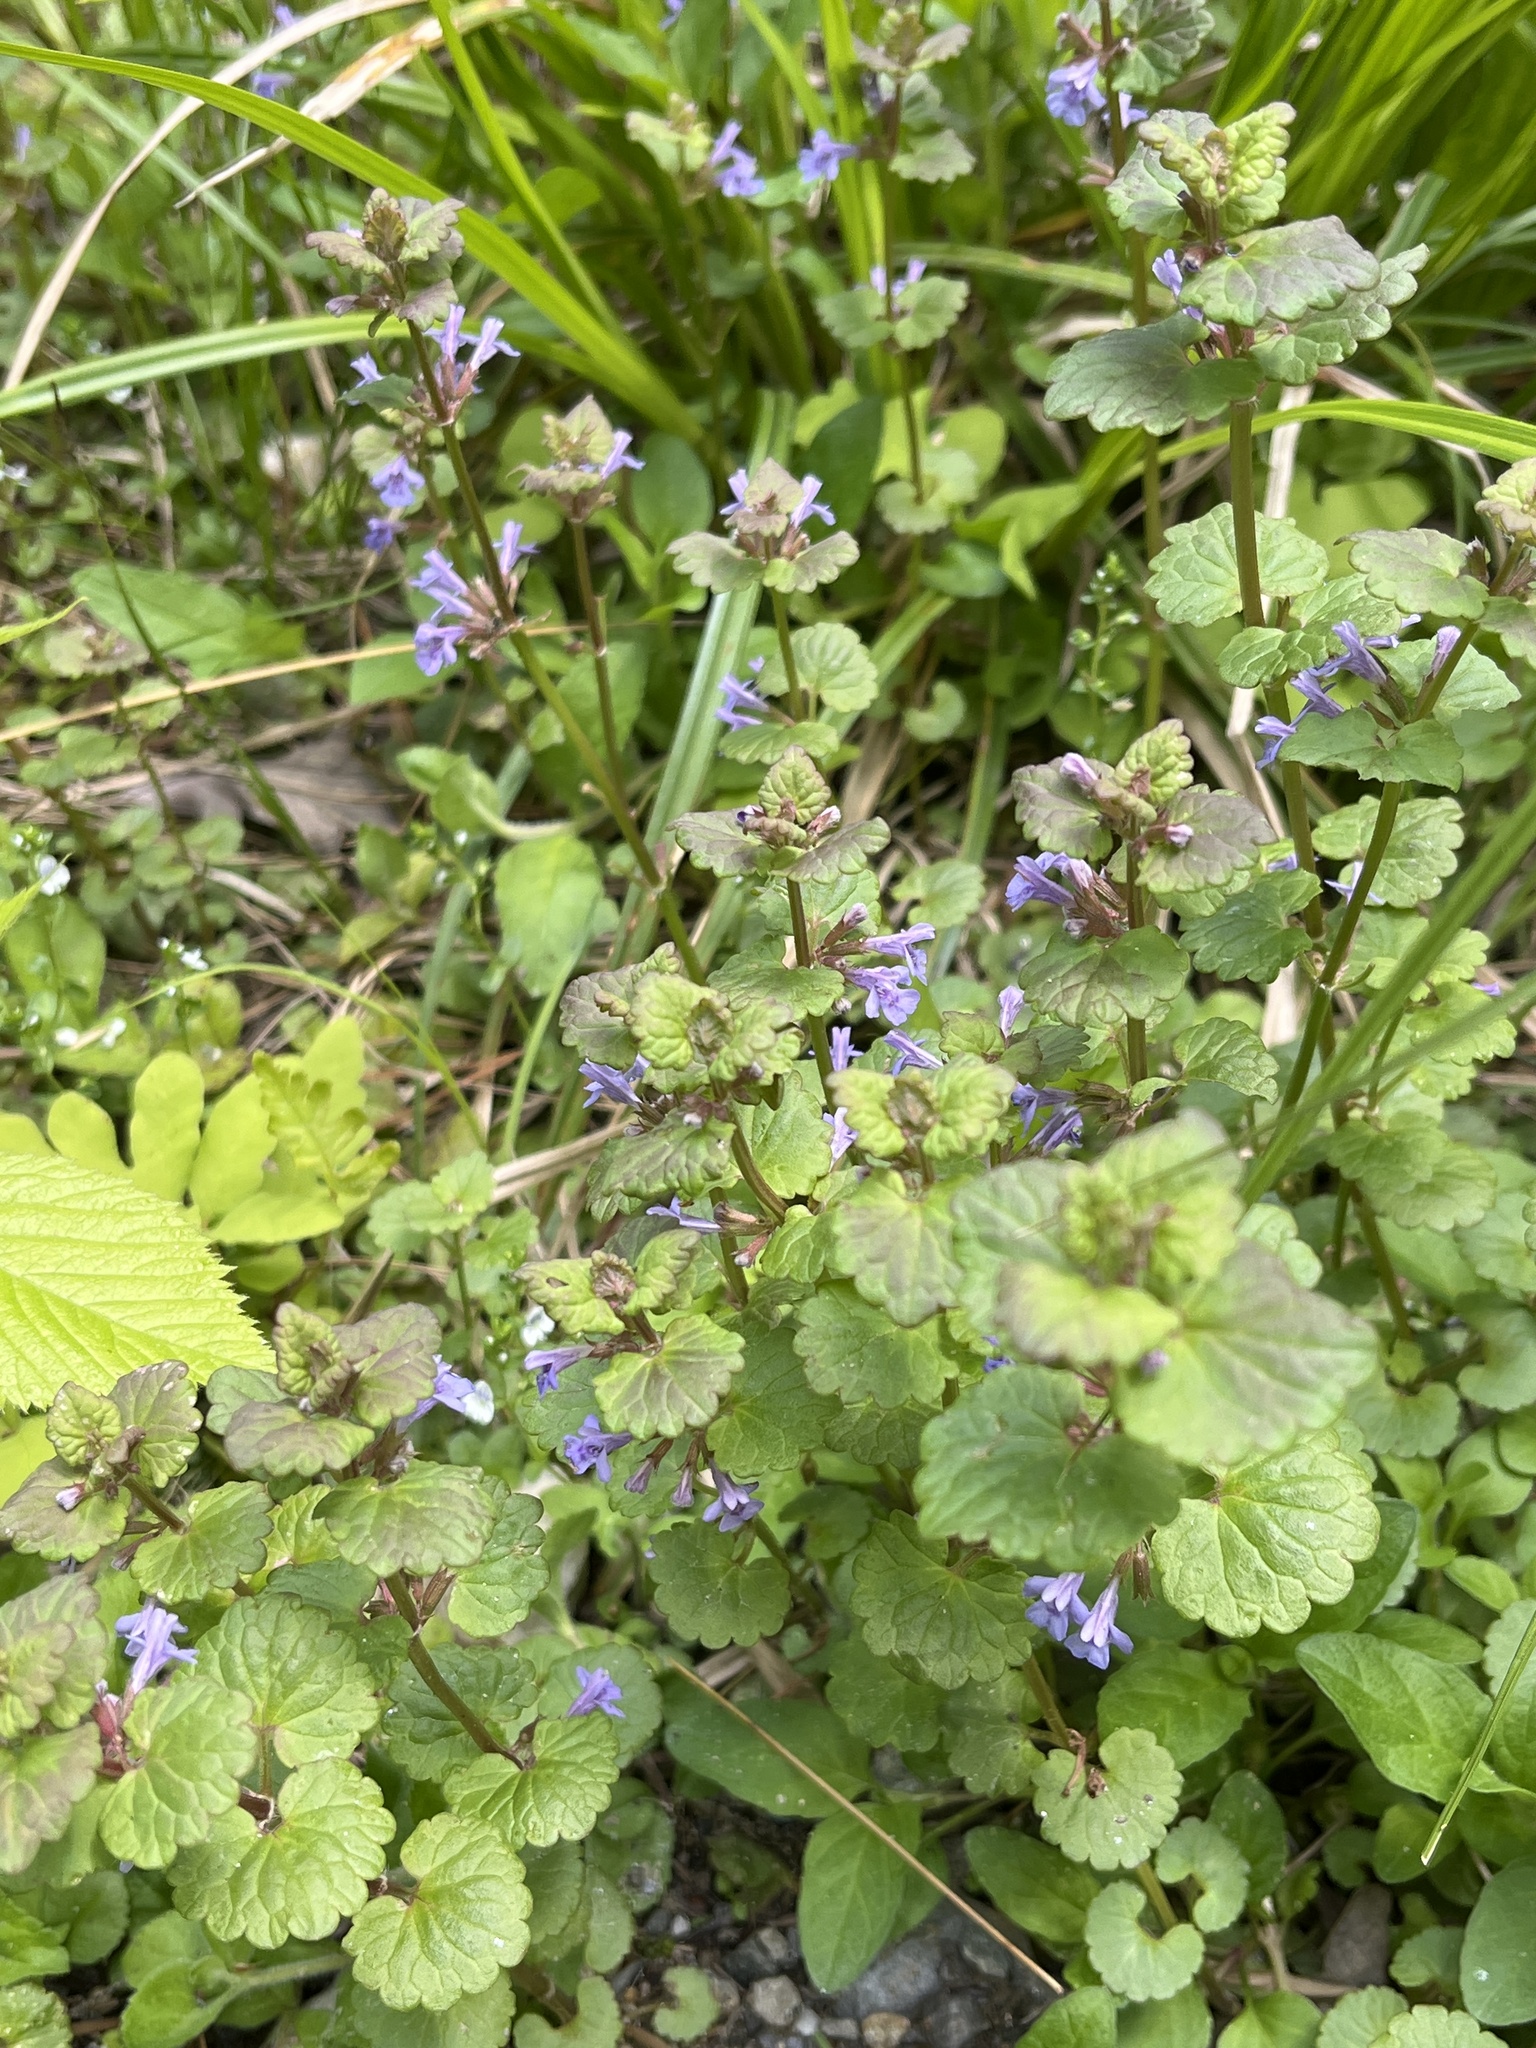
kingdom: Plantae
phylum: Tracheophyta
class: Magnoliopsida
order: Lamiales
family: Lamiaceae
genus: Glechoma
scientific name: Glechoma hederacea
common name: Ground ivy
